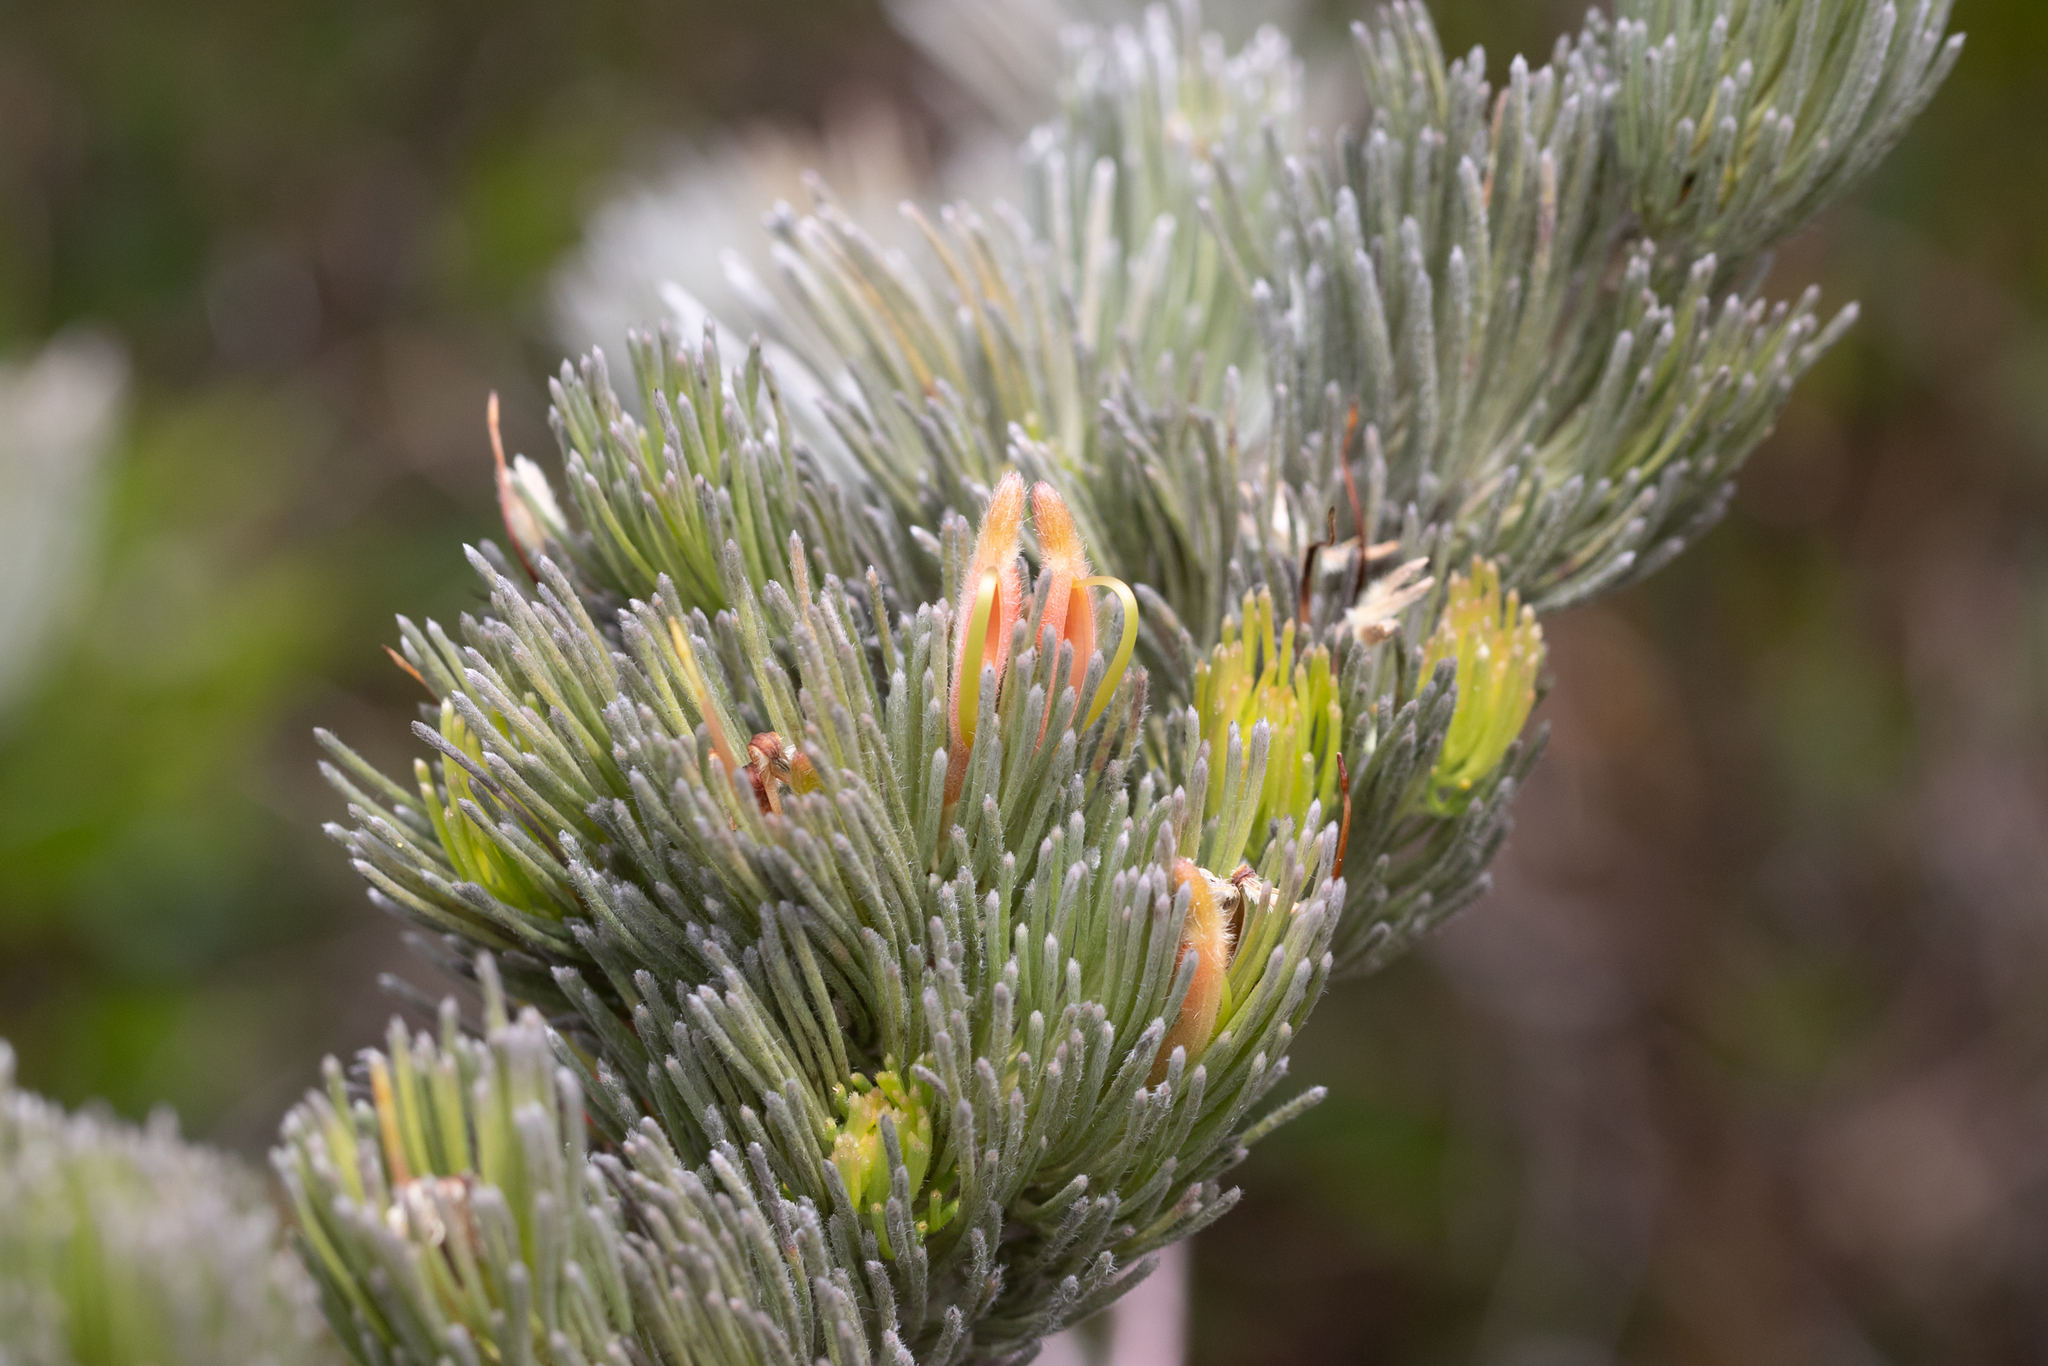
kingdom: Plantae
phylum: Tracheophyta
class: Magnoliopsida
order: Proteales
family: Proteaceae
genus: Adenanthos
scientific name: Adenanthos sericeus
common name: Coastal woollybush
